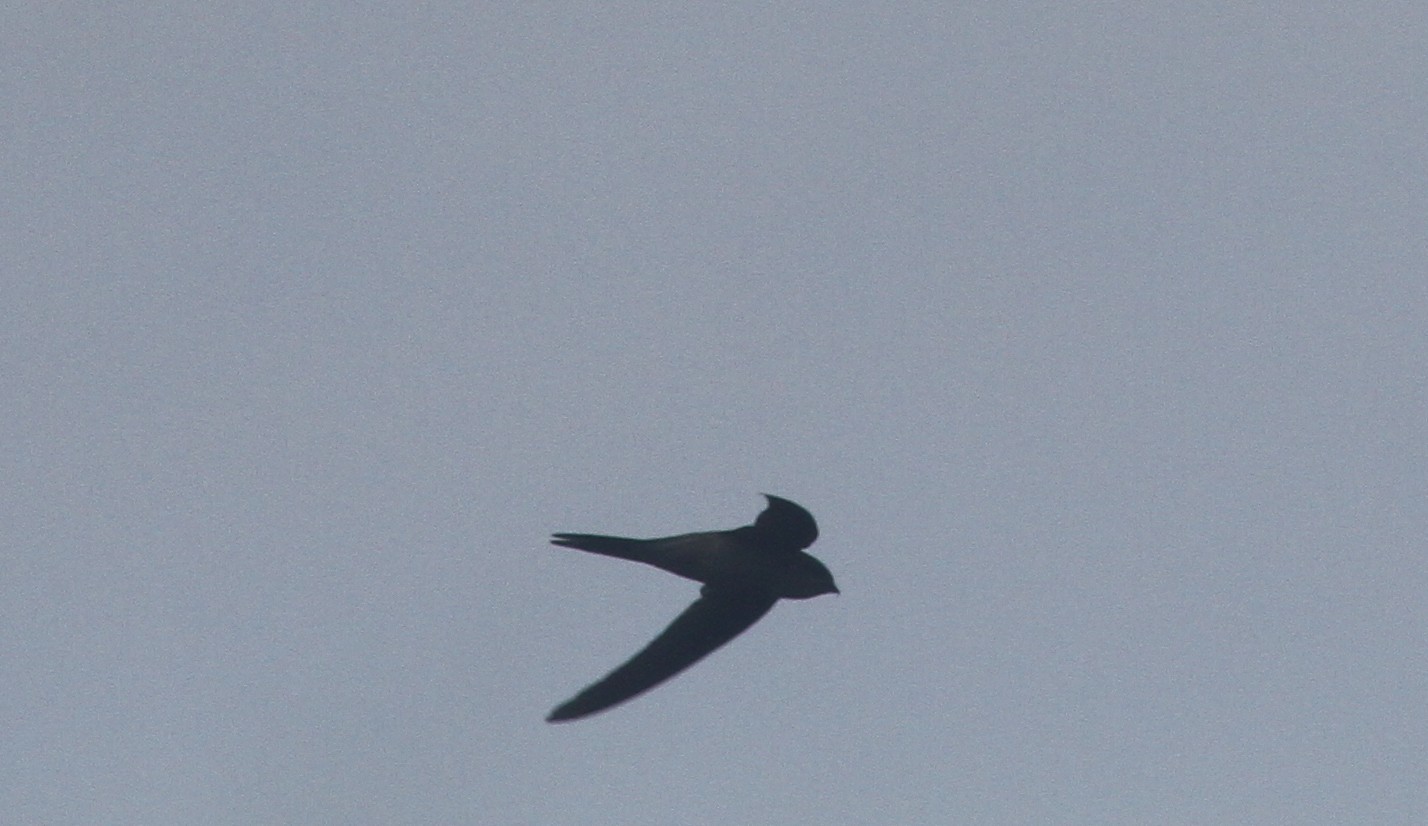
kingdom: Animalia
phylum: Chordata
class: Aves
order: Apodiformes
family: Apodidae
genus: Cypsiurus
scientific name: Cypsiurus balasiensis
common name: Asian palm swift
